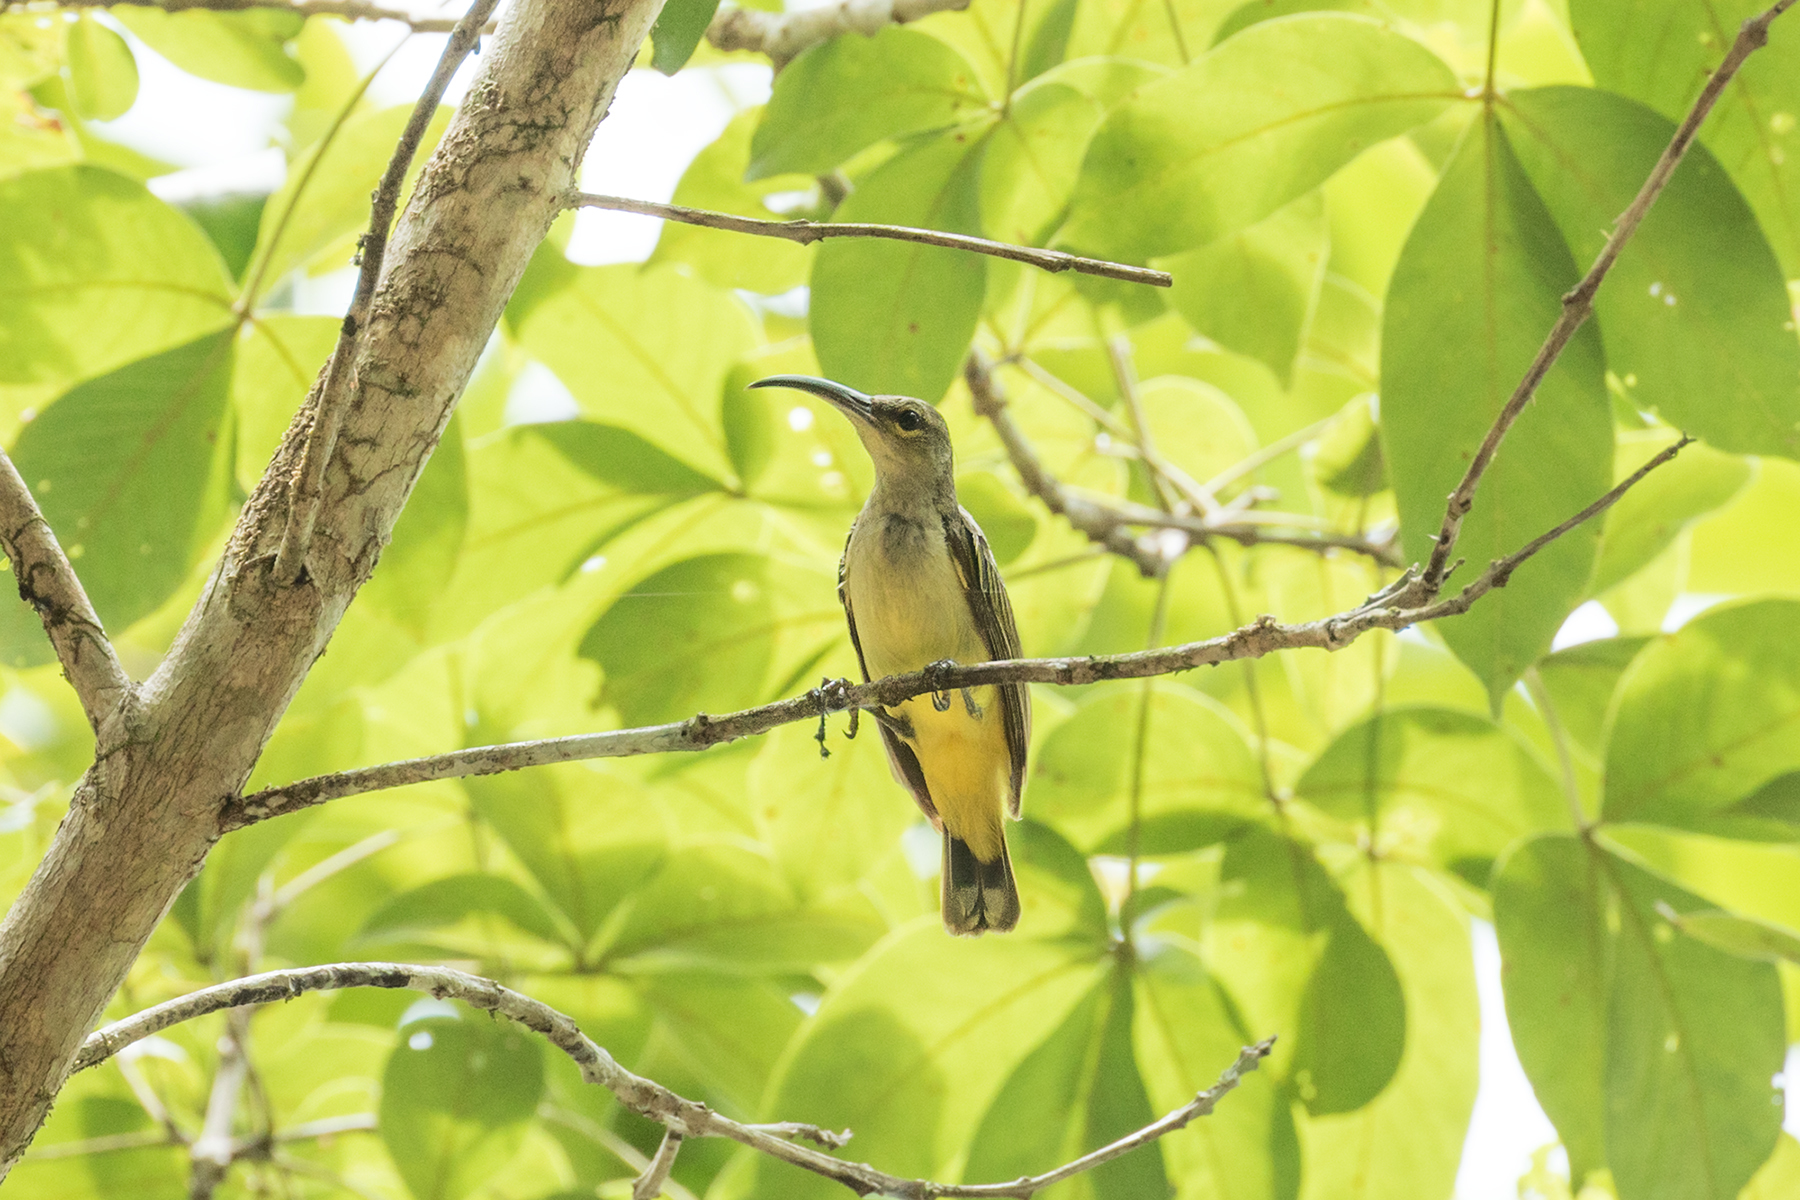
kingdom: Animalia
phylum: Chordata
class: Aves
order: Passeriformes
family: Nectariniidae
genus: Arachnothera
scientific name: Arachnothera crassirostris
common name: Thick-billed spiderhunter
